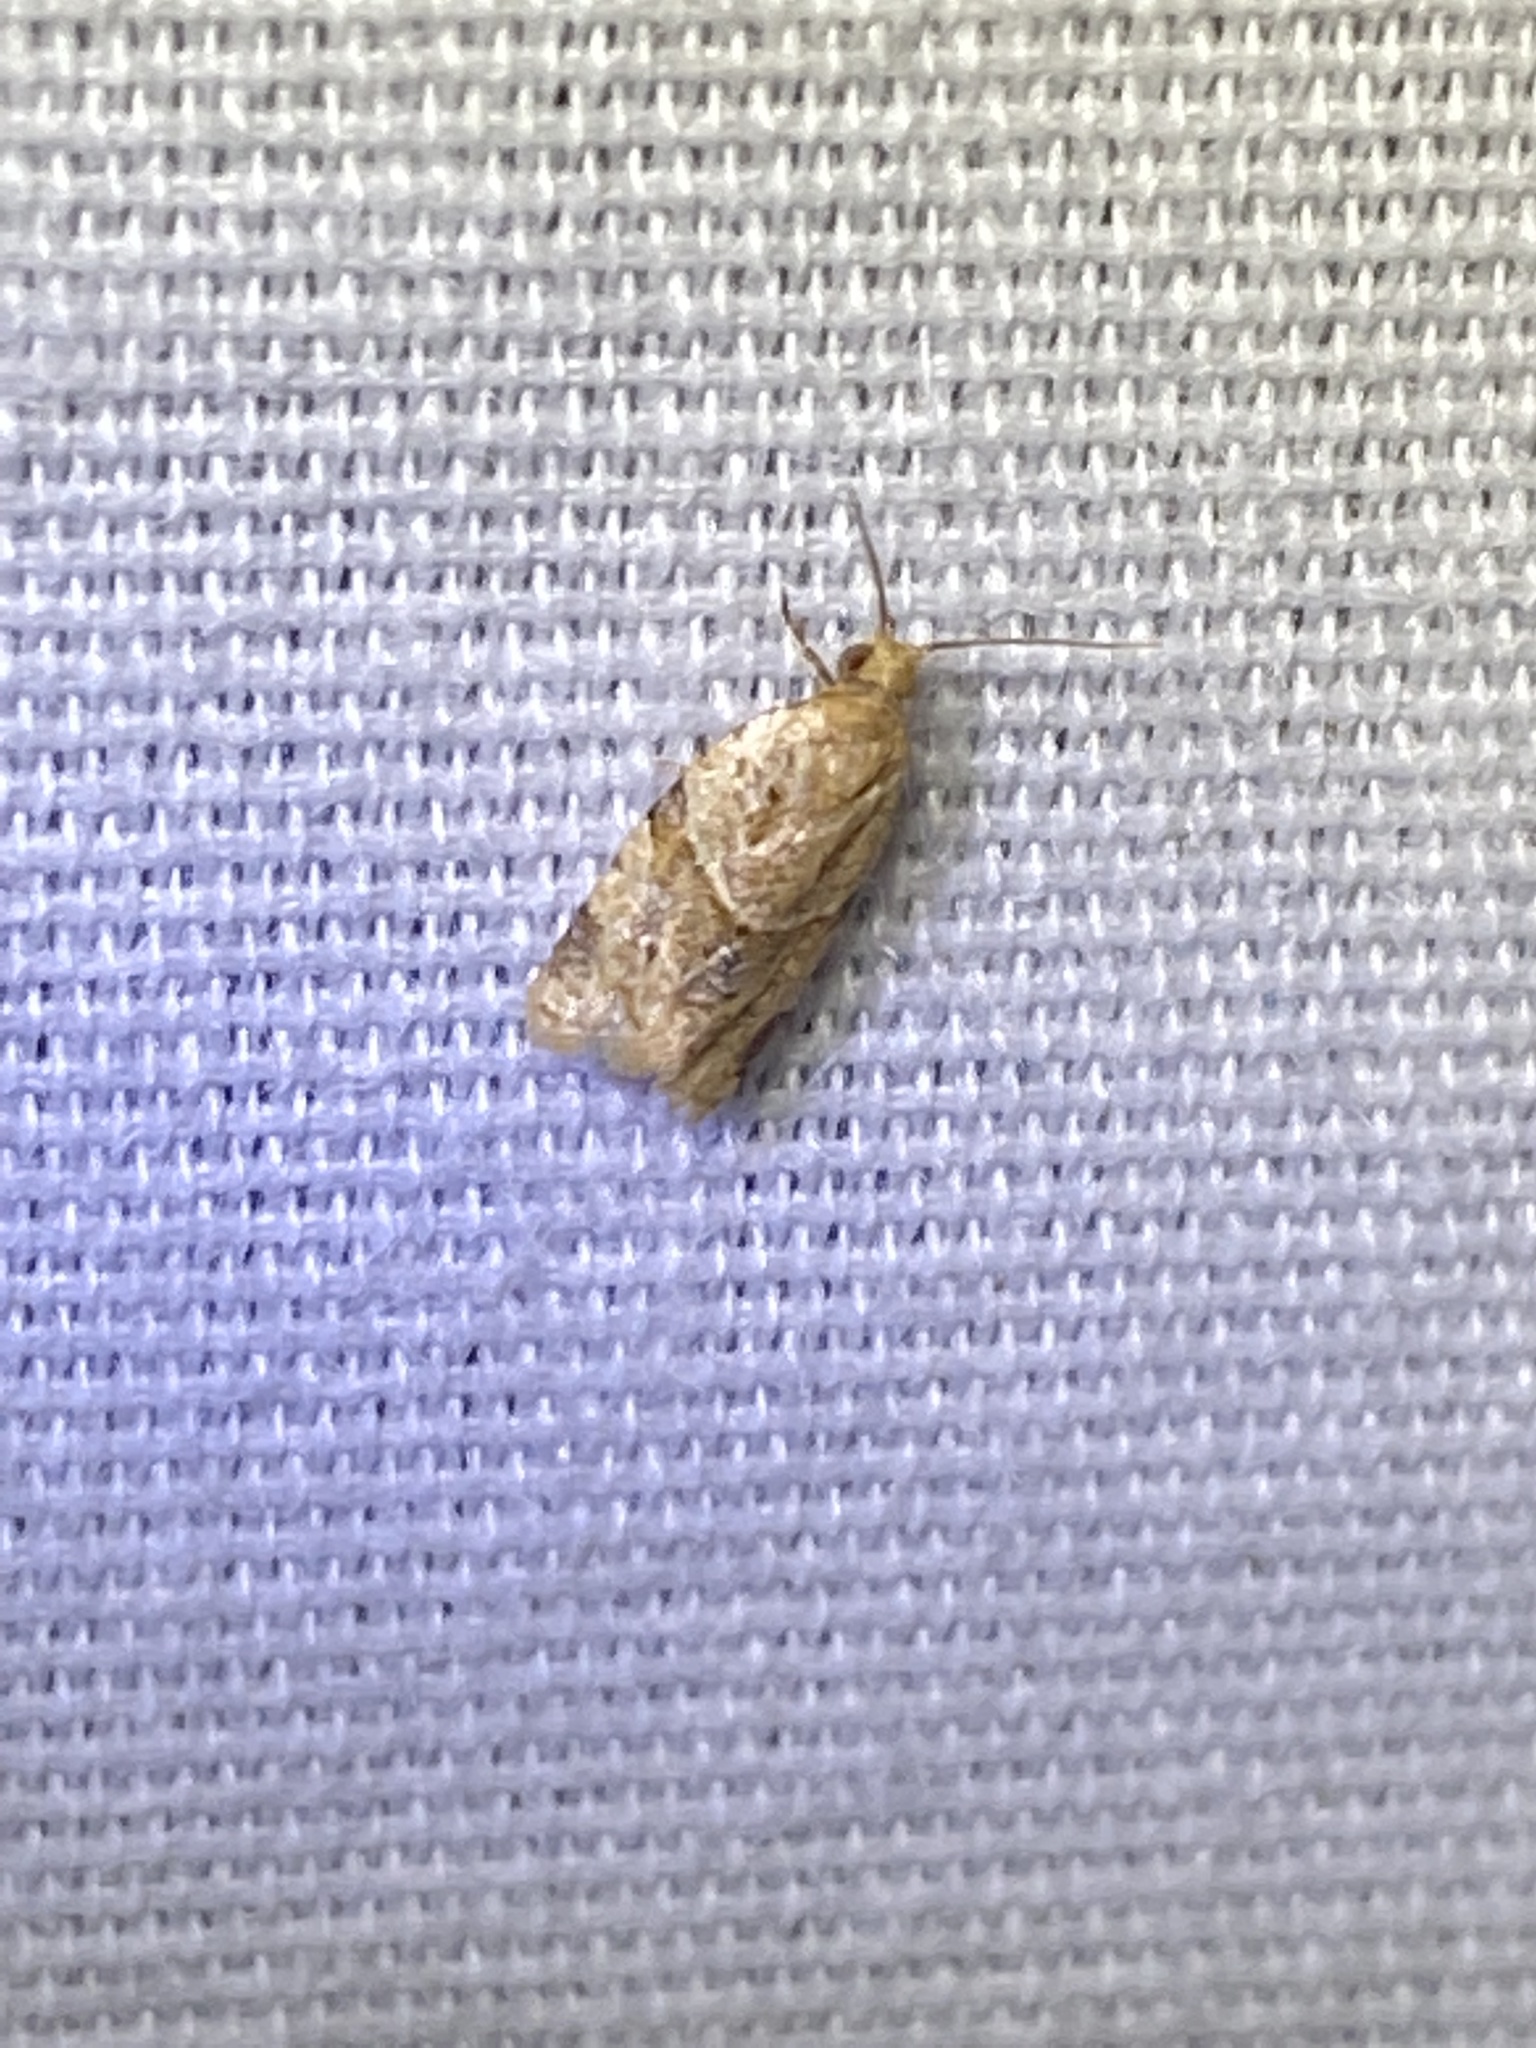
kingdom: Animalia
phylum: Arthropoda
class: Insecta
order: Lepidoptera
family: Tortricidae
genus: Clepsis
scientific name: Clepsis peritana
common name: Garden tortrix
